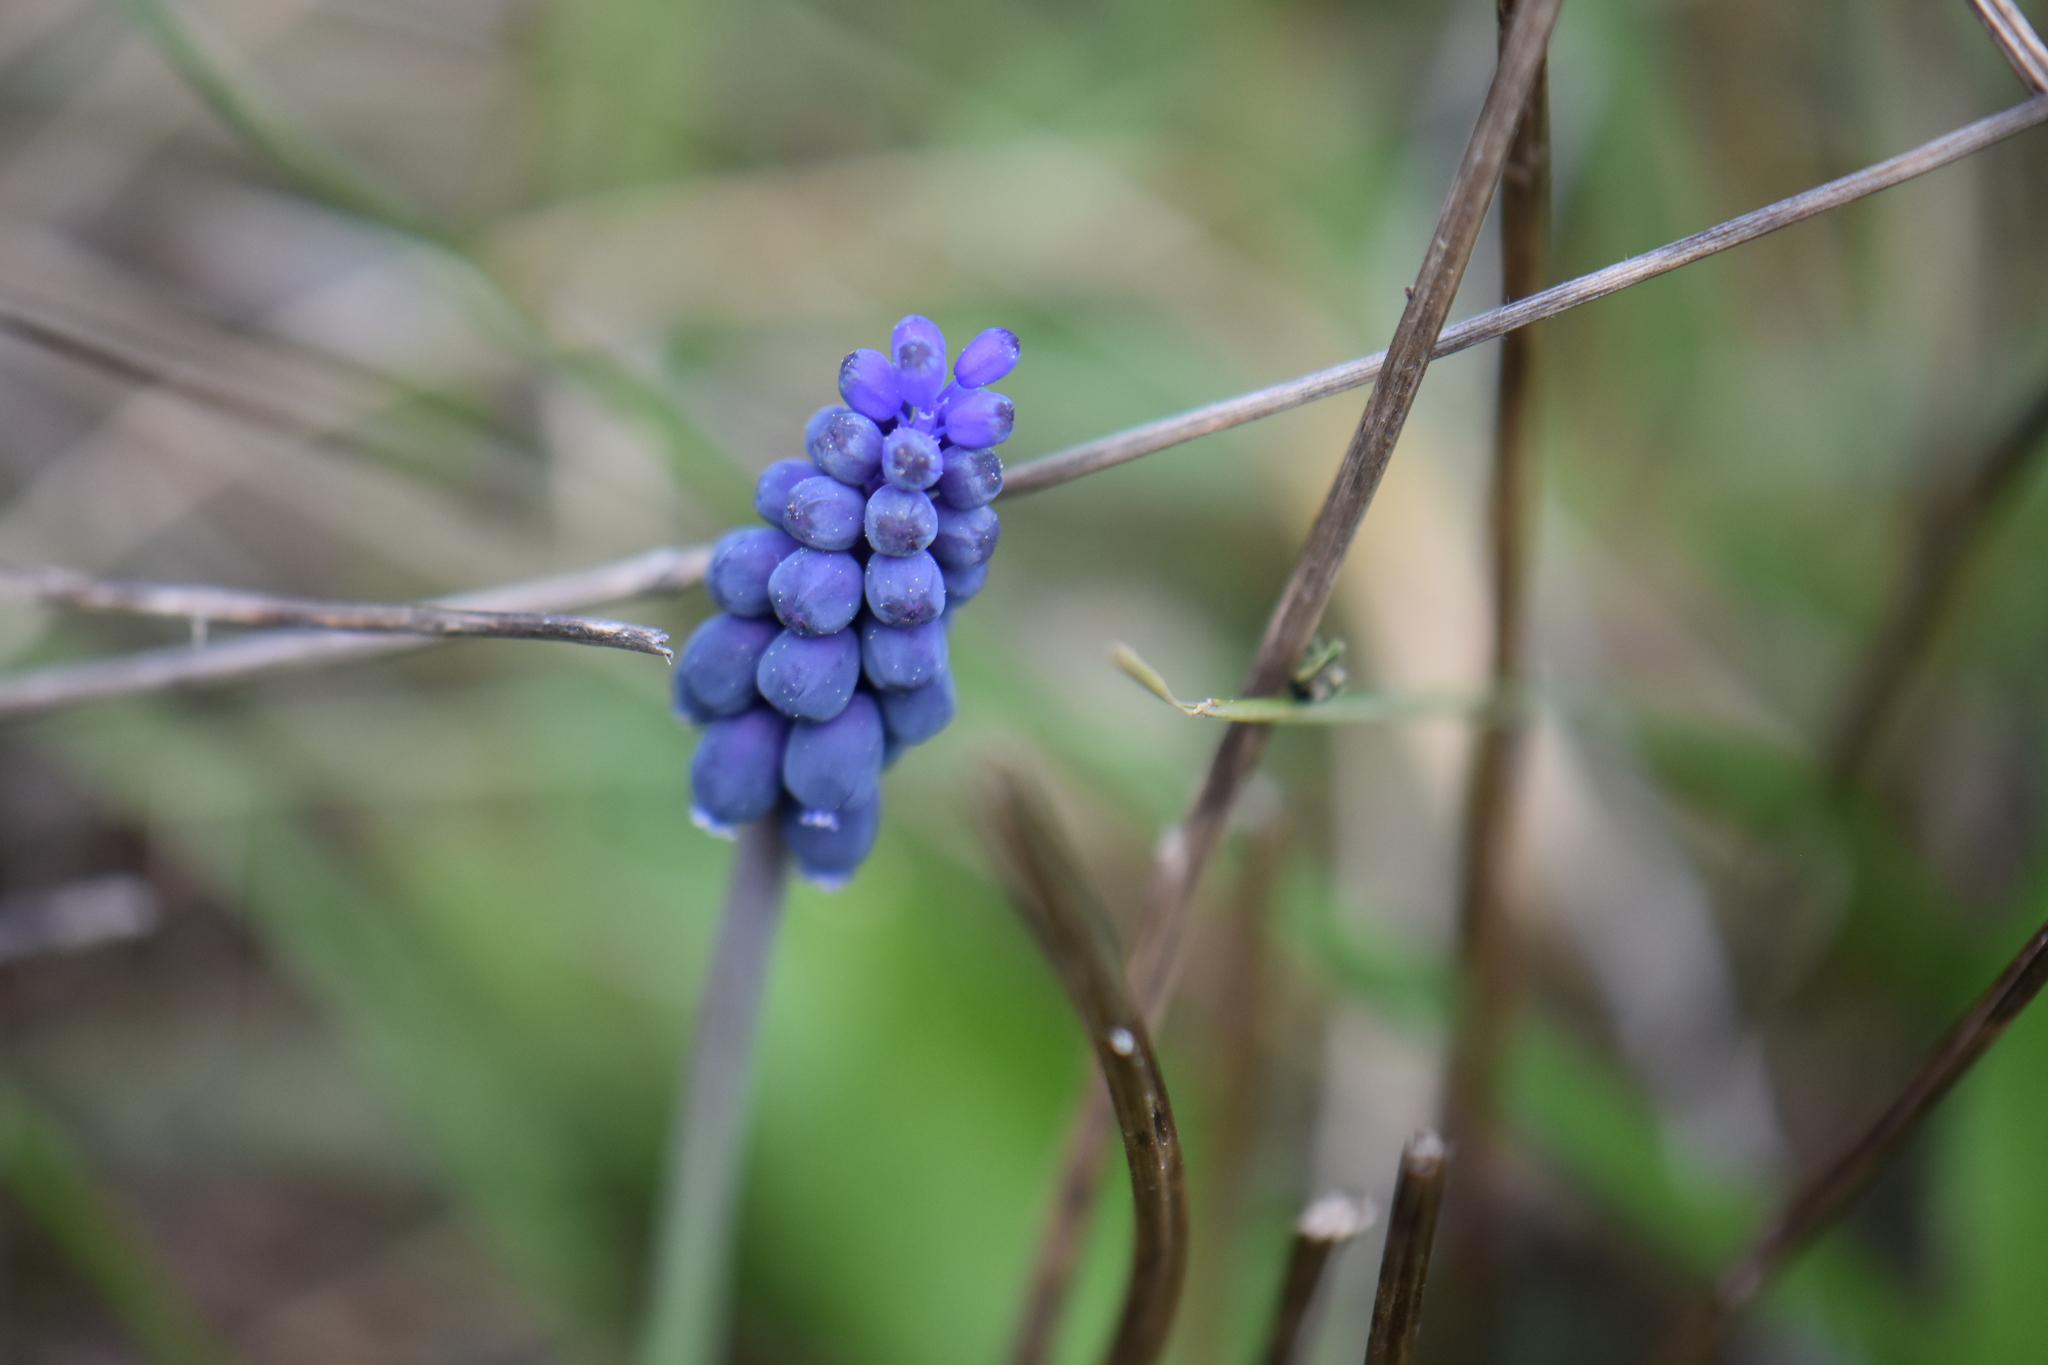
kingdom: Plantae
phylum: Tracheophyta
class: Liliopsida
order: Asparagales
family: Asparagaceae
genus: Muscari
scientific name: Muscari neglectum
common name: Grape-hyacinth
